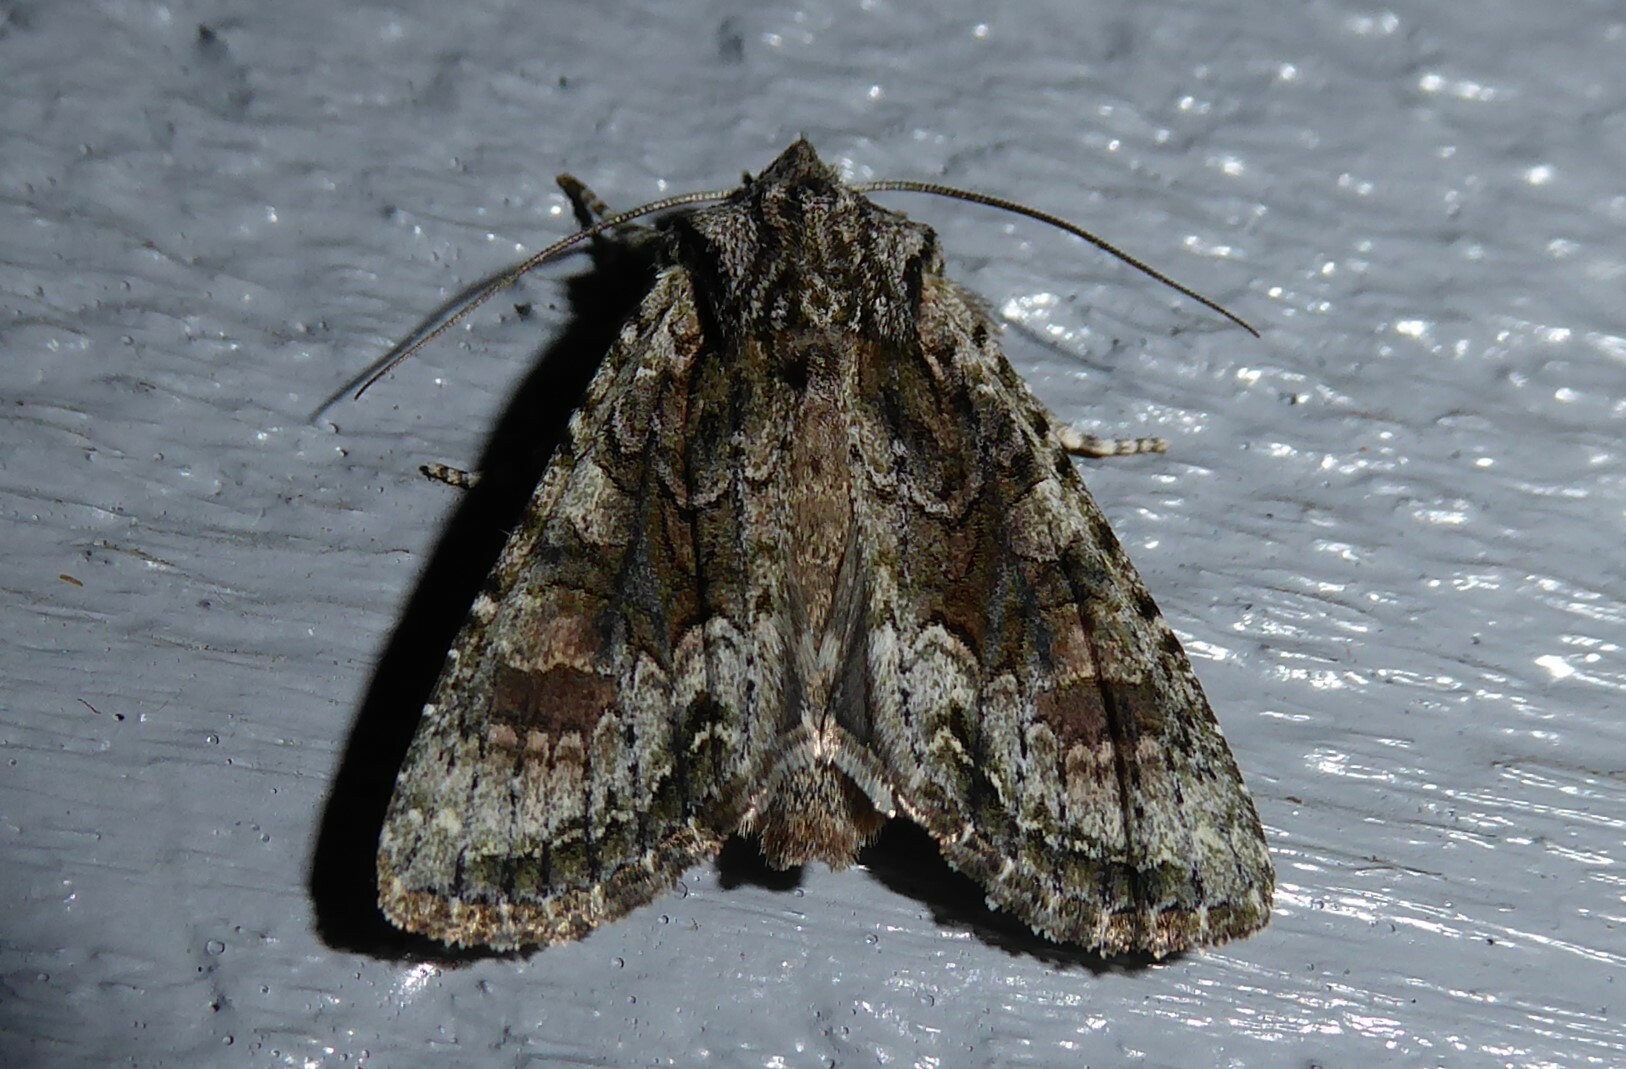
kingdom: Animalia
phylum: Arthropoda
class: Insecta
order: Lepidoptera
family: Noctuidae
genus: Ichneutica
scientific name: Ichneutica mutans
